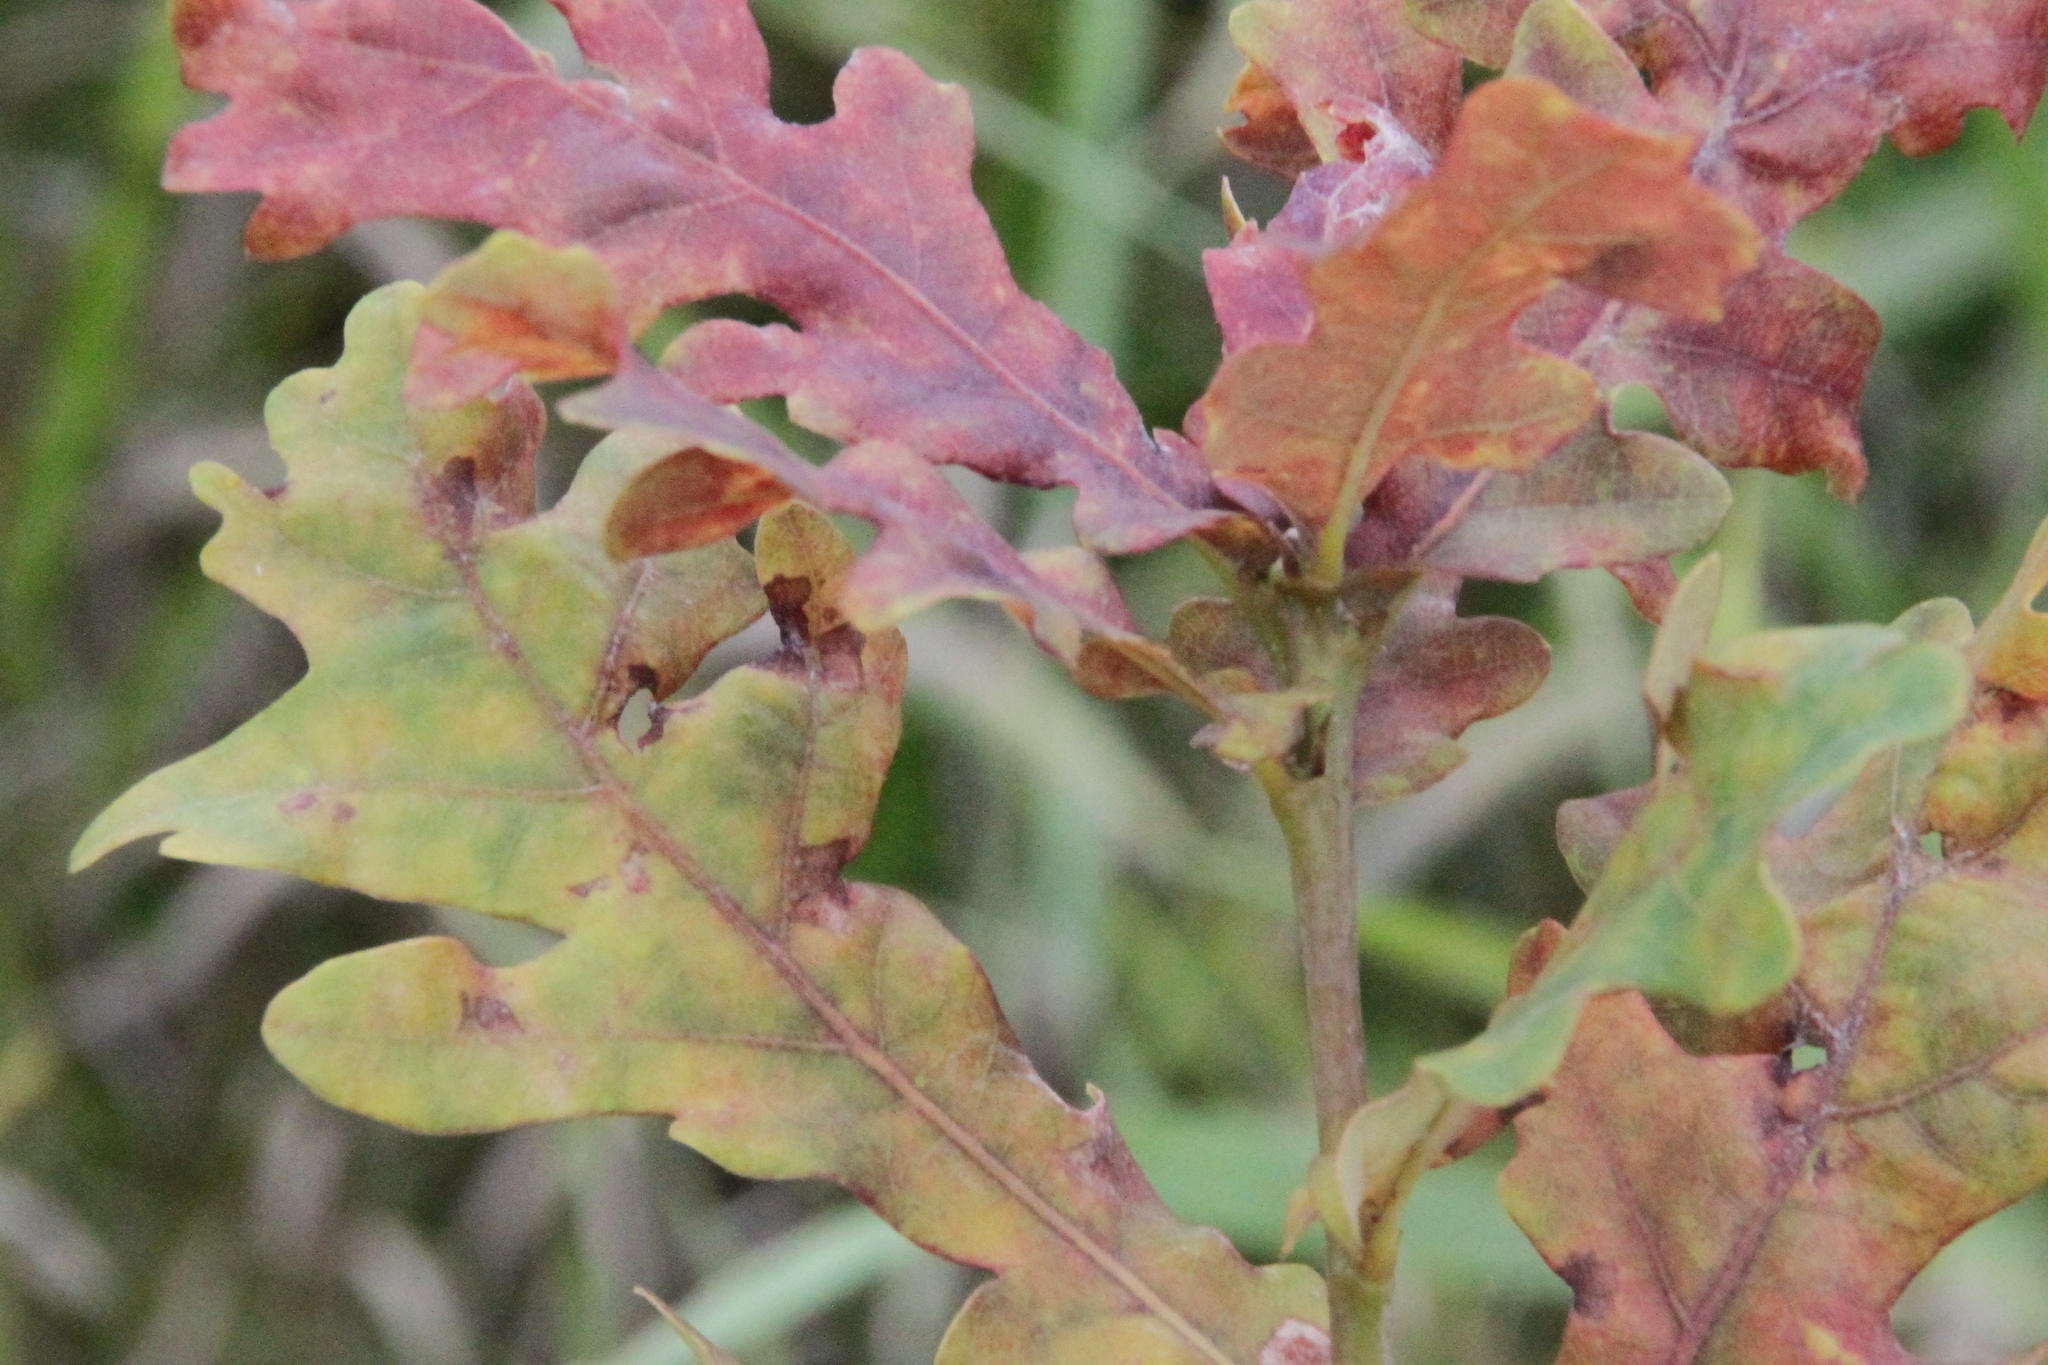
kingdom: Plantae
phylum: Tracheophyta
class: Magnoliopsida
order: Fagales
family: Fagaceae
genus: Quercus
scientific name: Quercus robur
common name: Pedunculate oak
